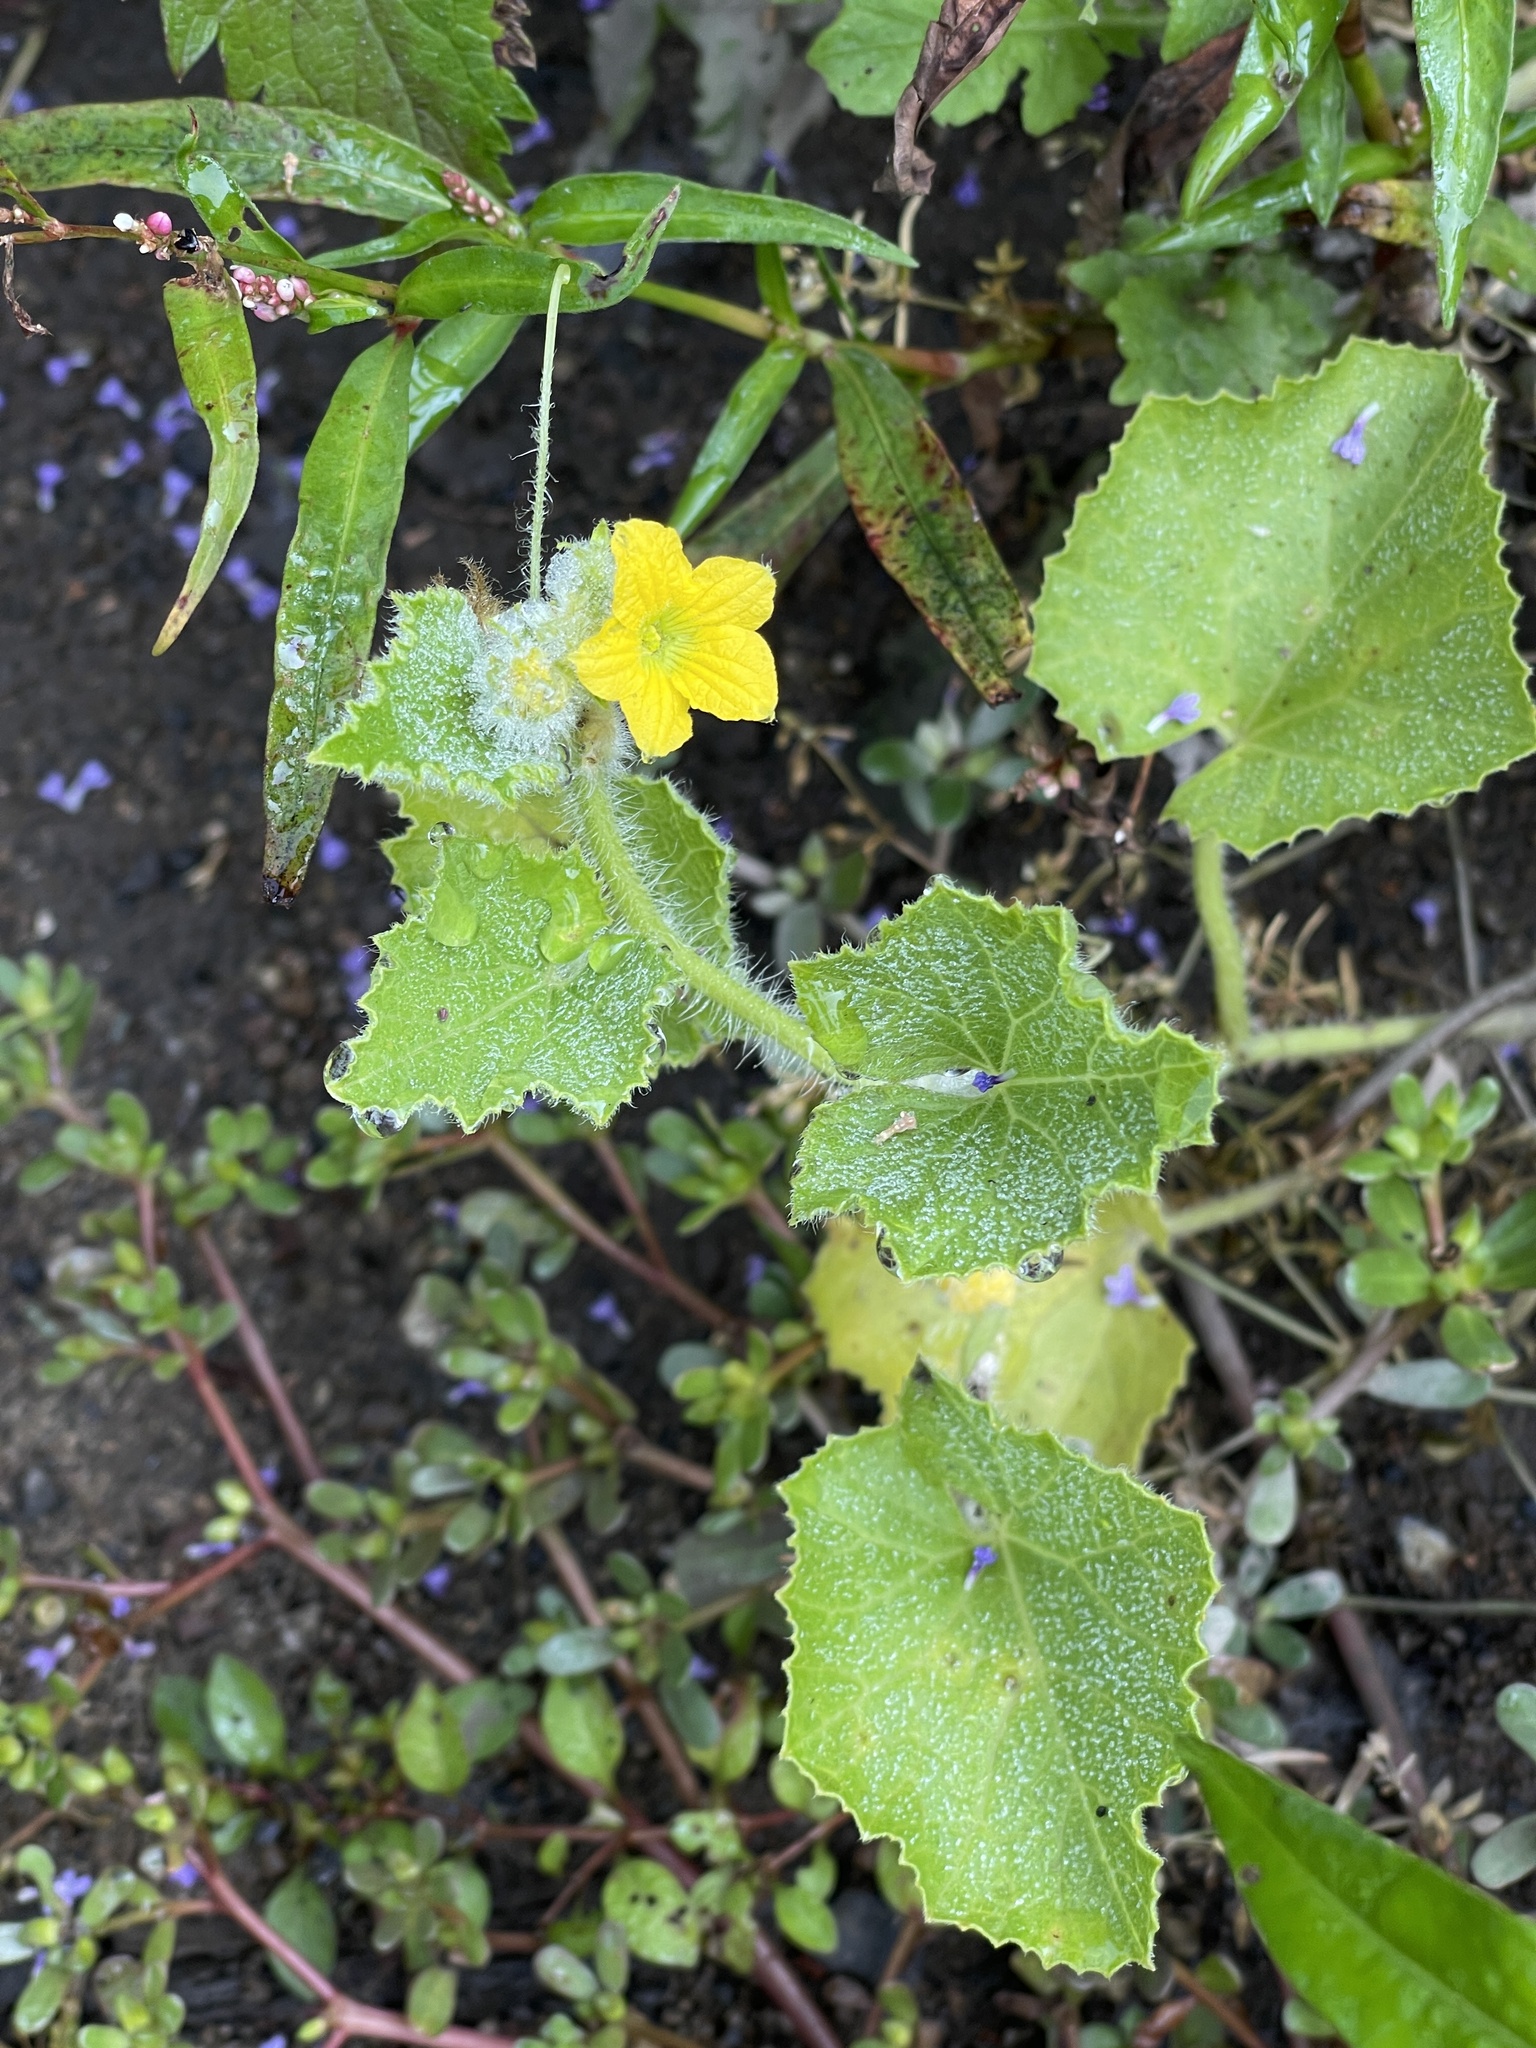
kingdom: Plantae
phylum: Tracheophyta
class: Magnoliopsida
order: Cucurbitales
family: Cucurbitaceae
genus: Cucumis
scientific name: Cucumis sativus
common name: Cucumber
